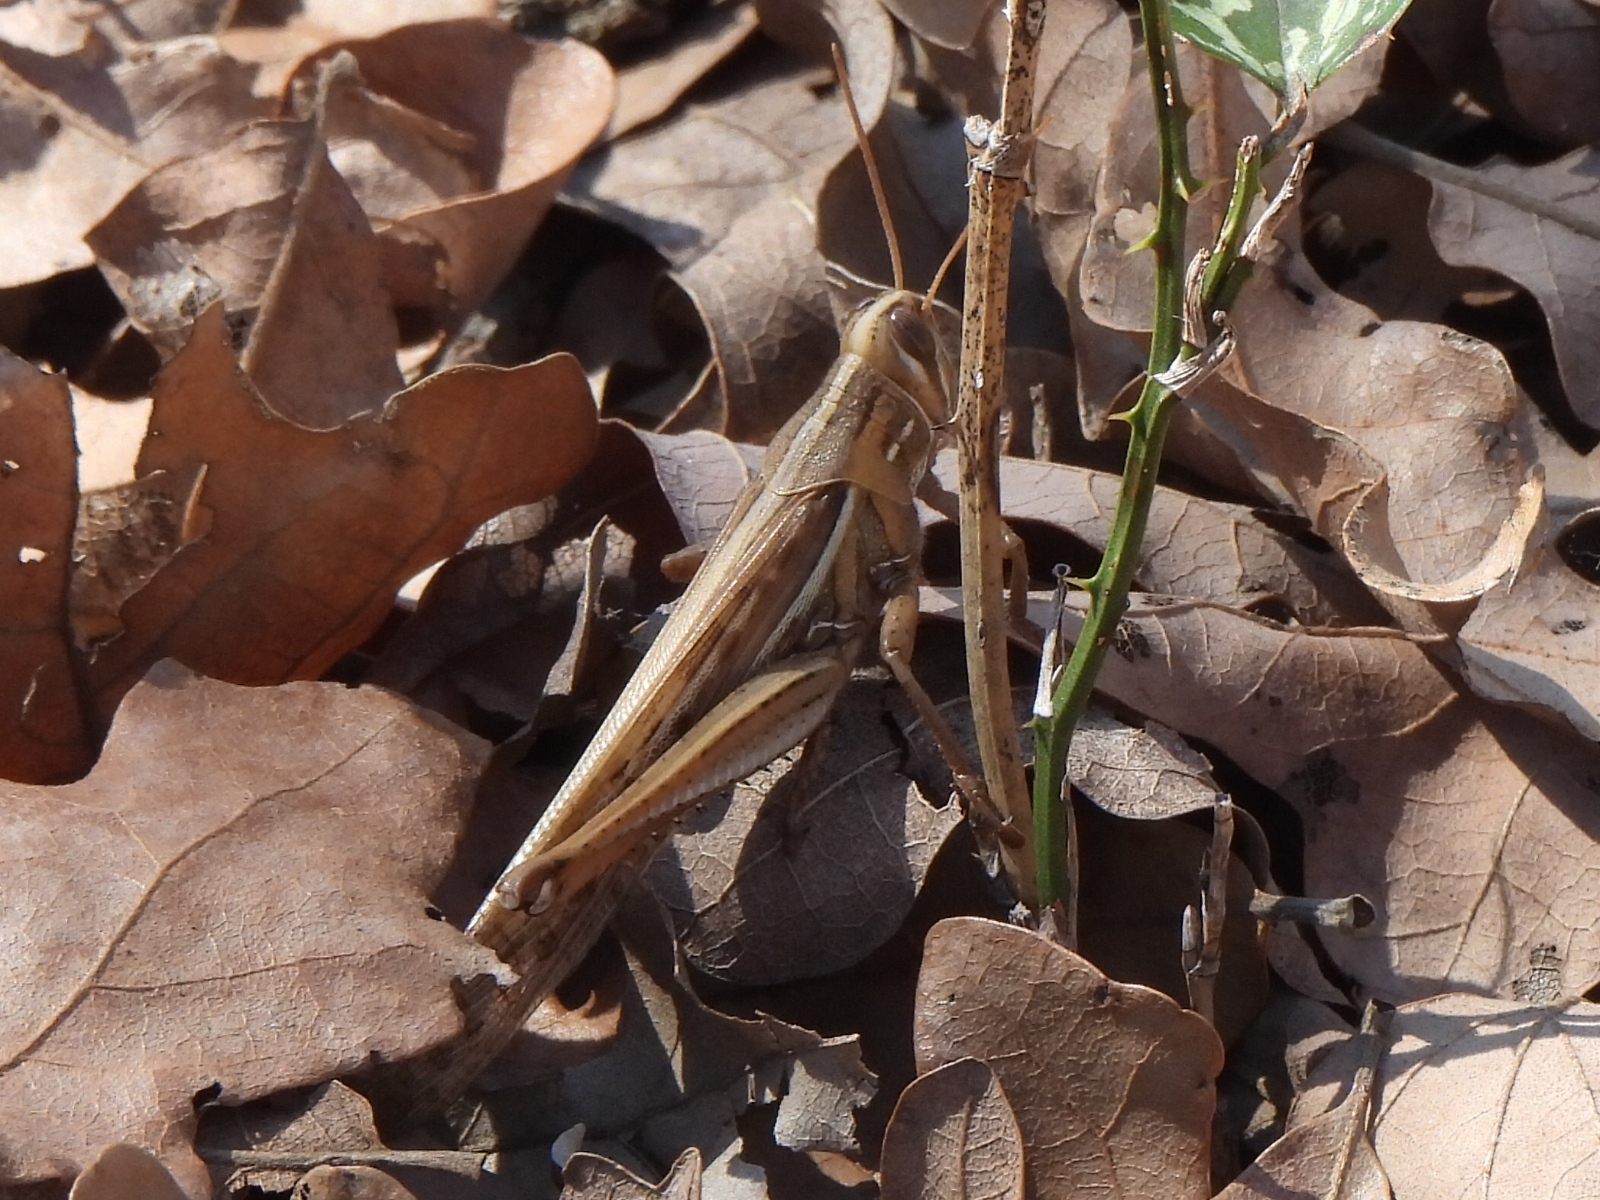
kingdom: Animalia
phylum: Arthropoda
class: Insecta
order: Orthoptera
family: Acrididae
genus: Schistocerca
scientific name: Schistocerca americana
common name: American bird locust
